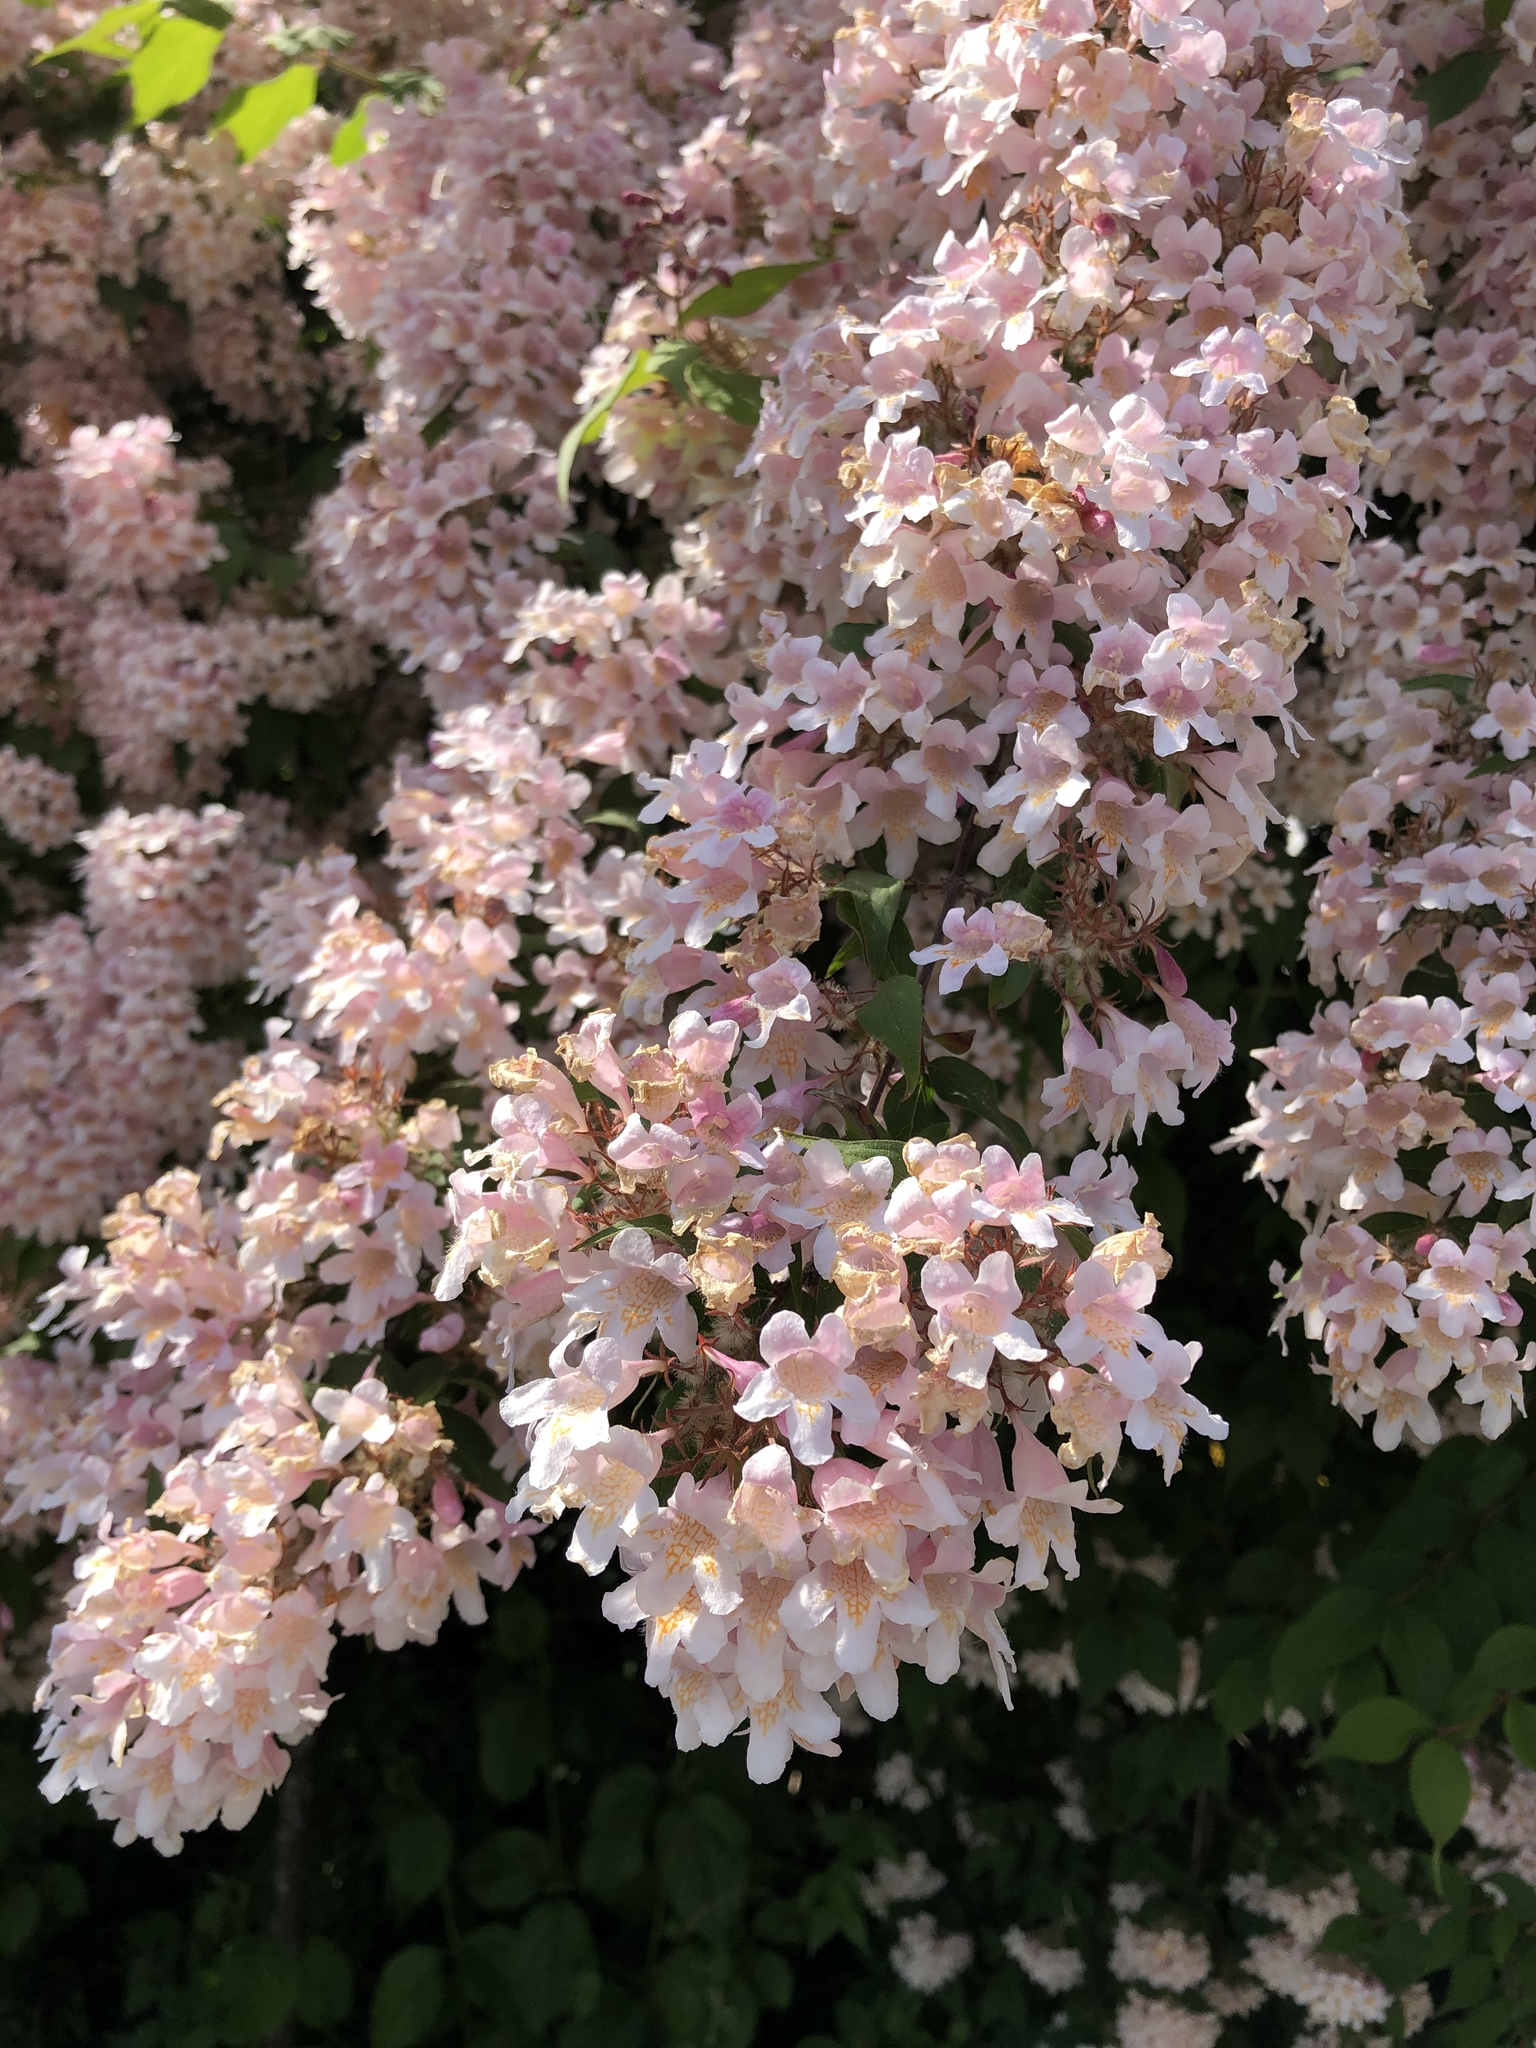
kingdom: Plantae
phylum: Tracheophyta
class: Magnoliopsida
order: Dipsacales
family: Caprifoliaceae
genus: Kolkwitzia
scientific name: Kolkwitzia amabilis
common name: Beautybush
